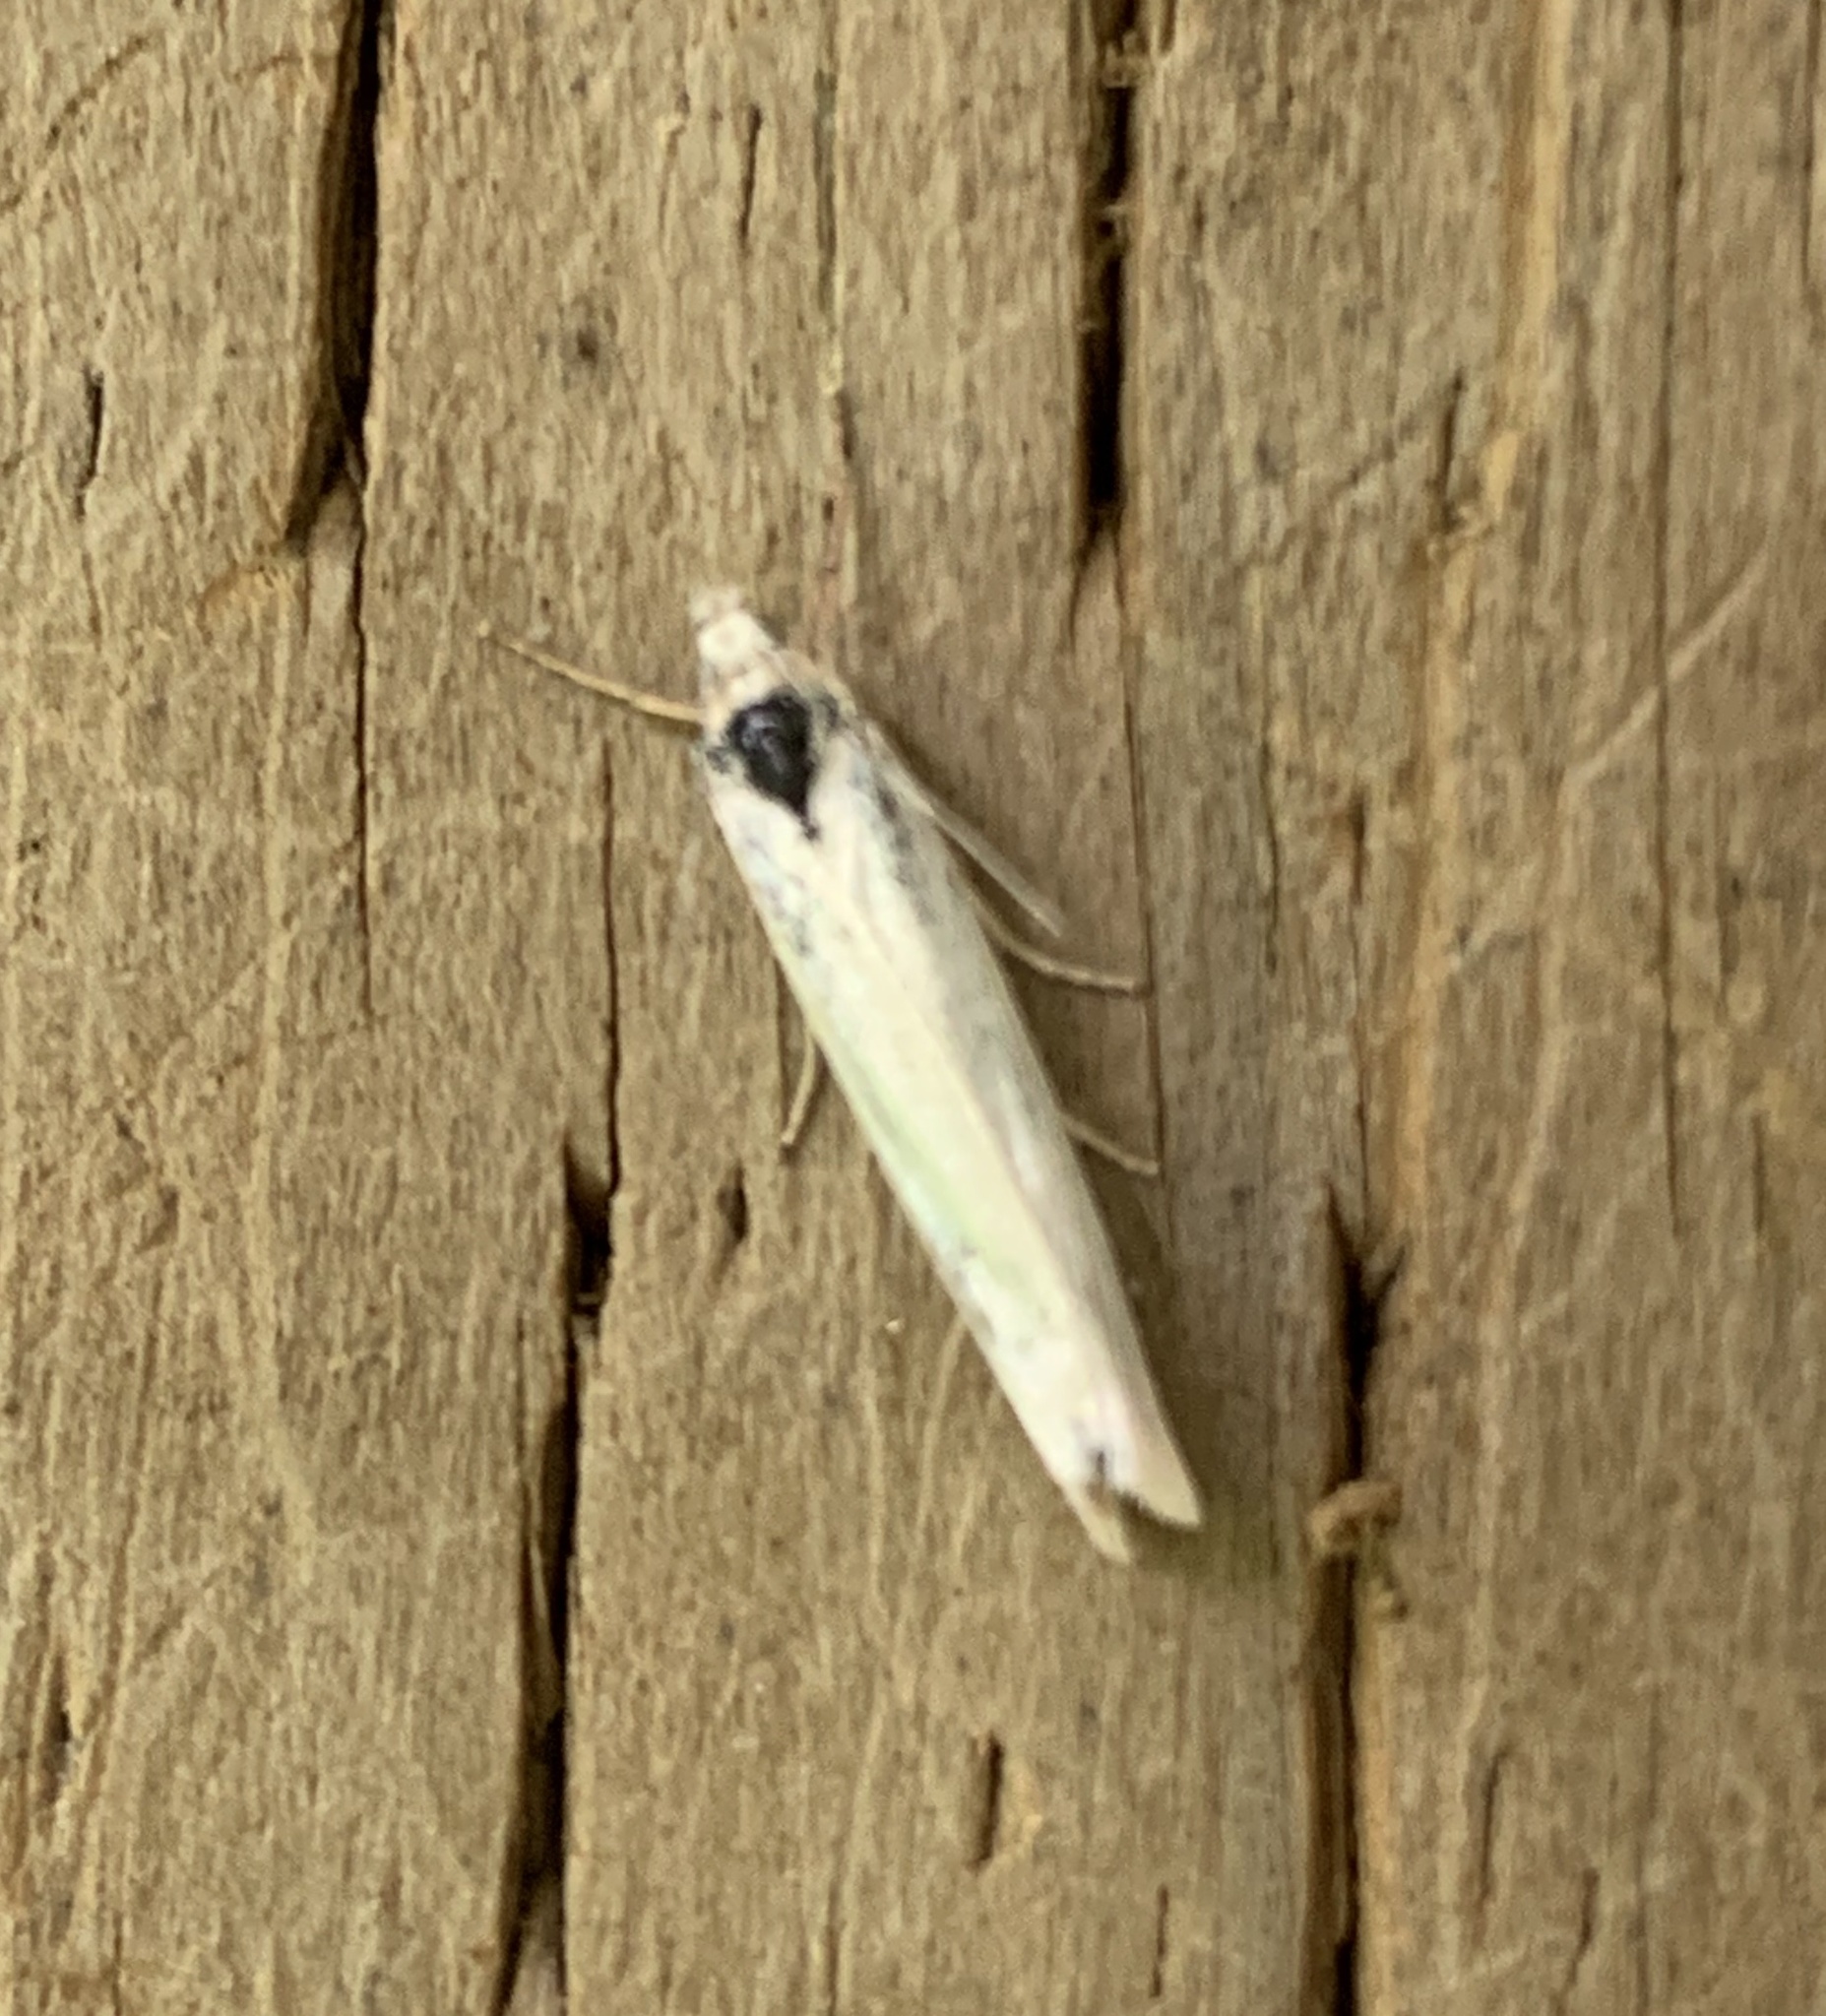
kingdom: Animalia
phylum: Arthropoda
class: Insecta
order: Lepidoptera
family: Crambidae
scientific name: Crambidae
